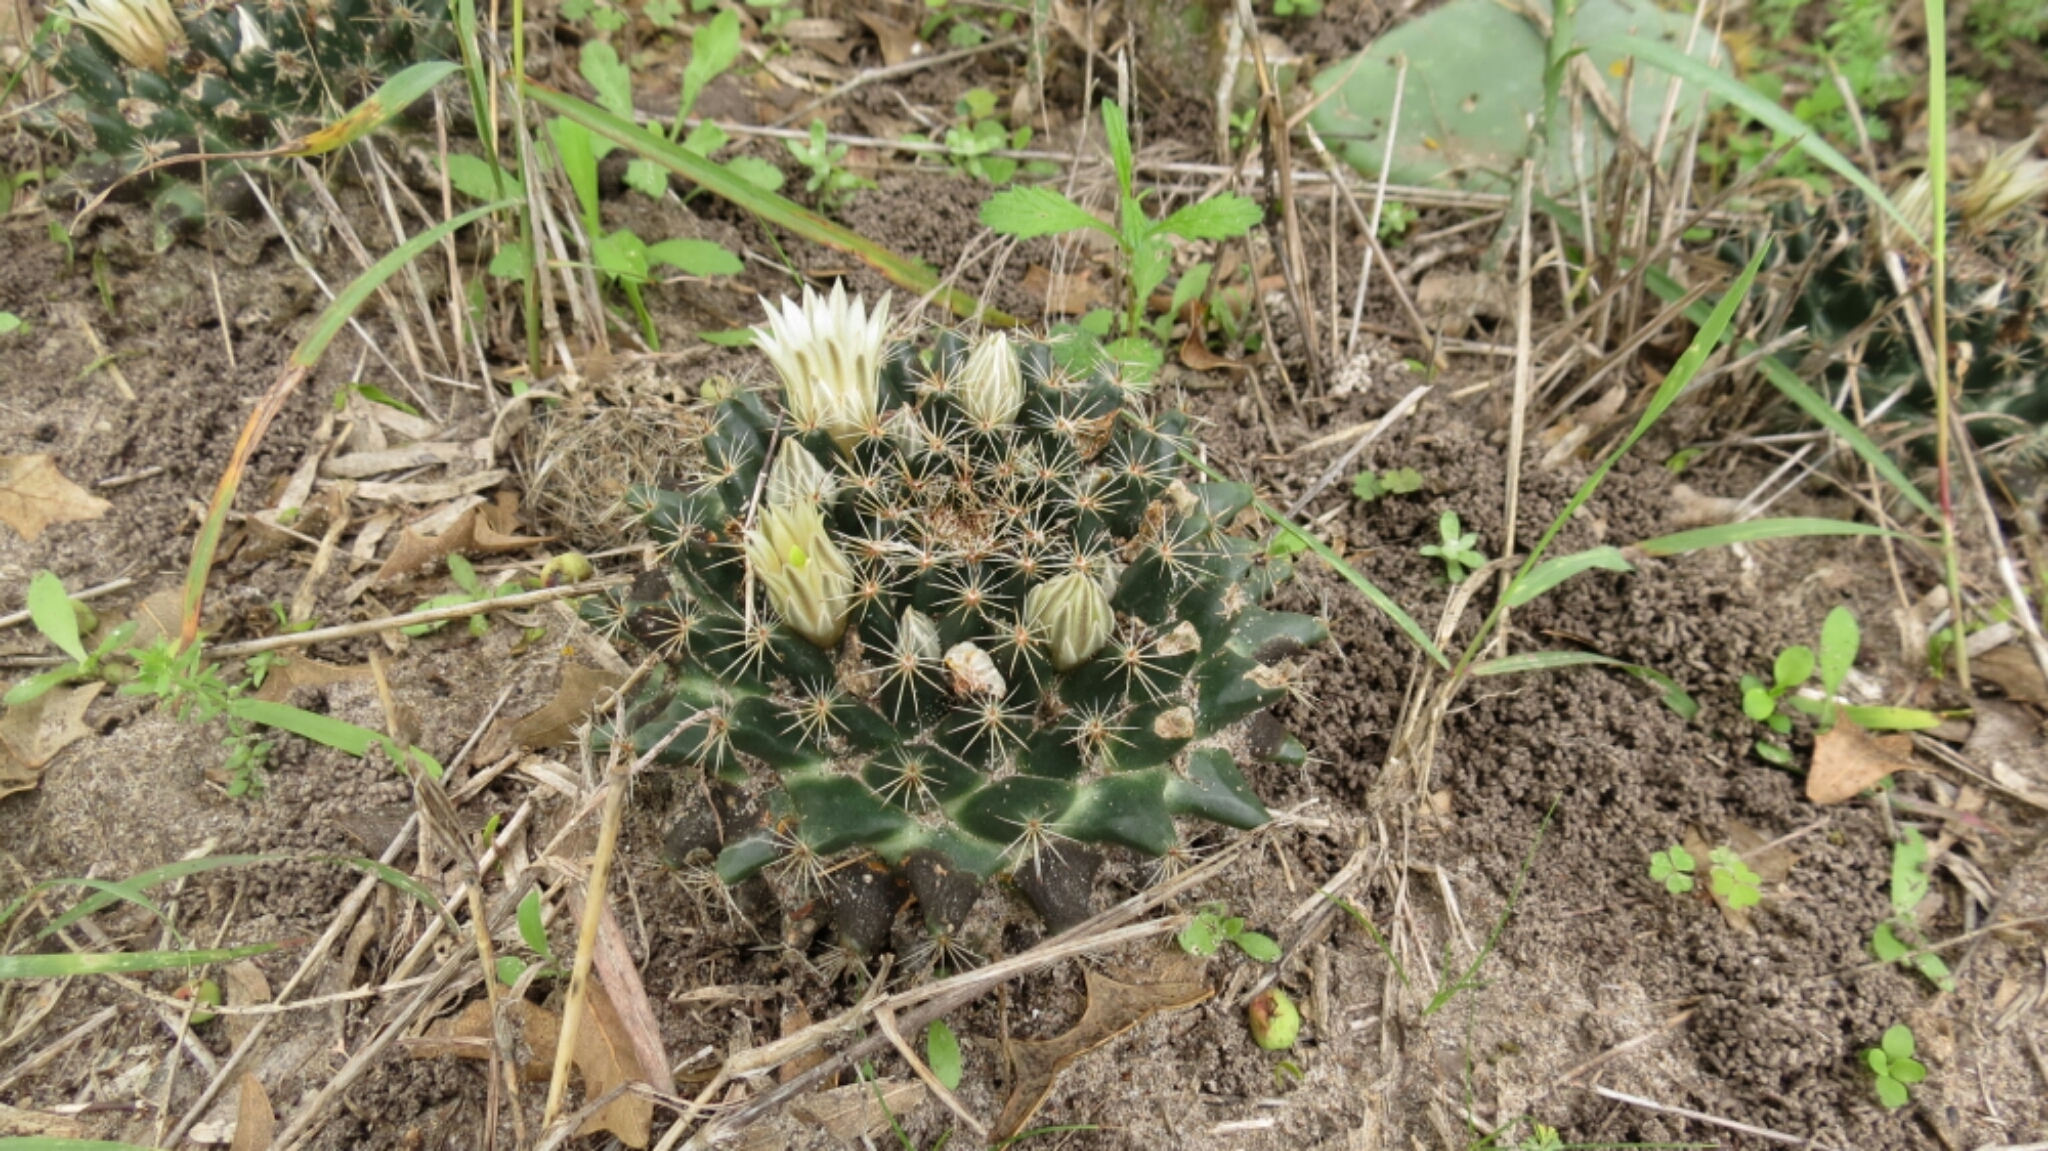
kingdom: Plantae
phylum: Tracheophyta
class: Magnoliopsida
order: Caryophyllales
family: Cactaceae
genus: Mammillaria
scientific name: Mammillaria heyderi
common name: Little nipple cactus
